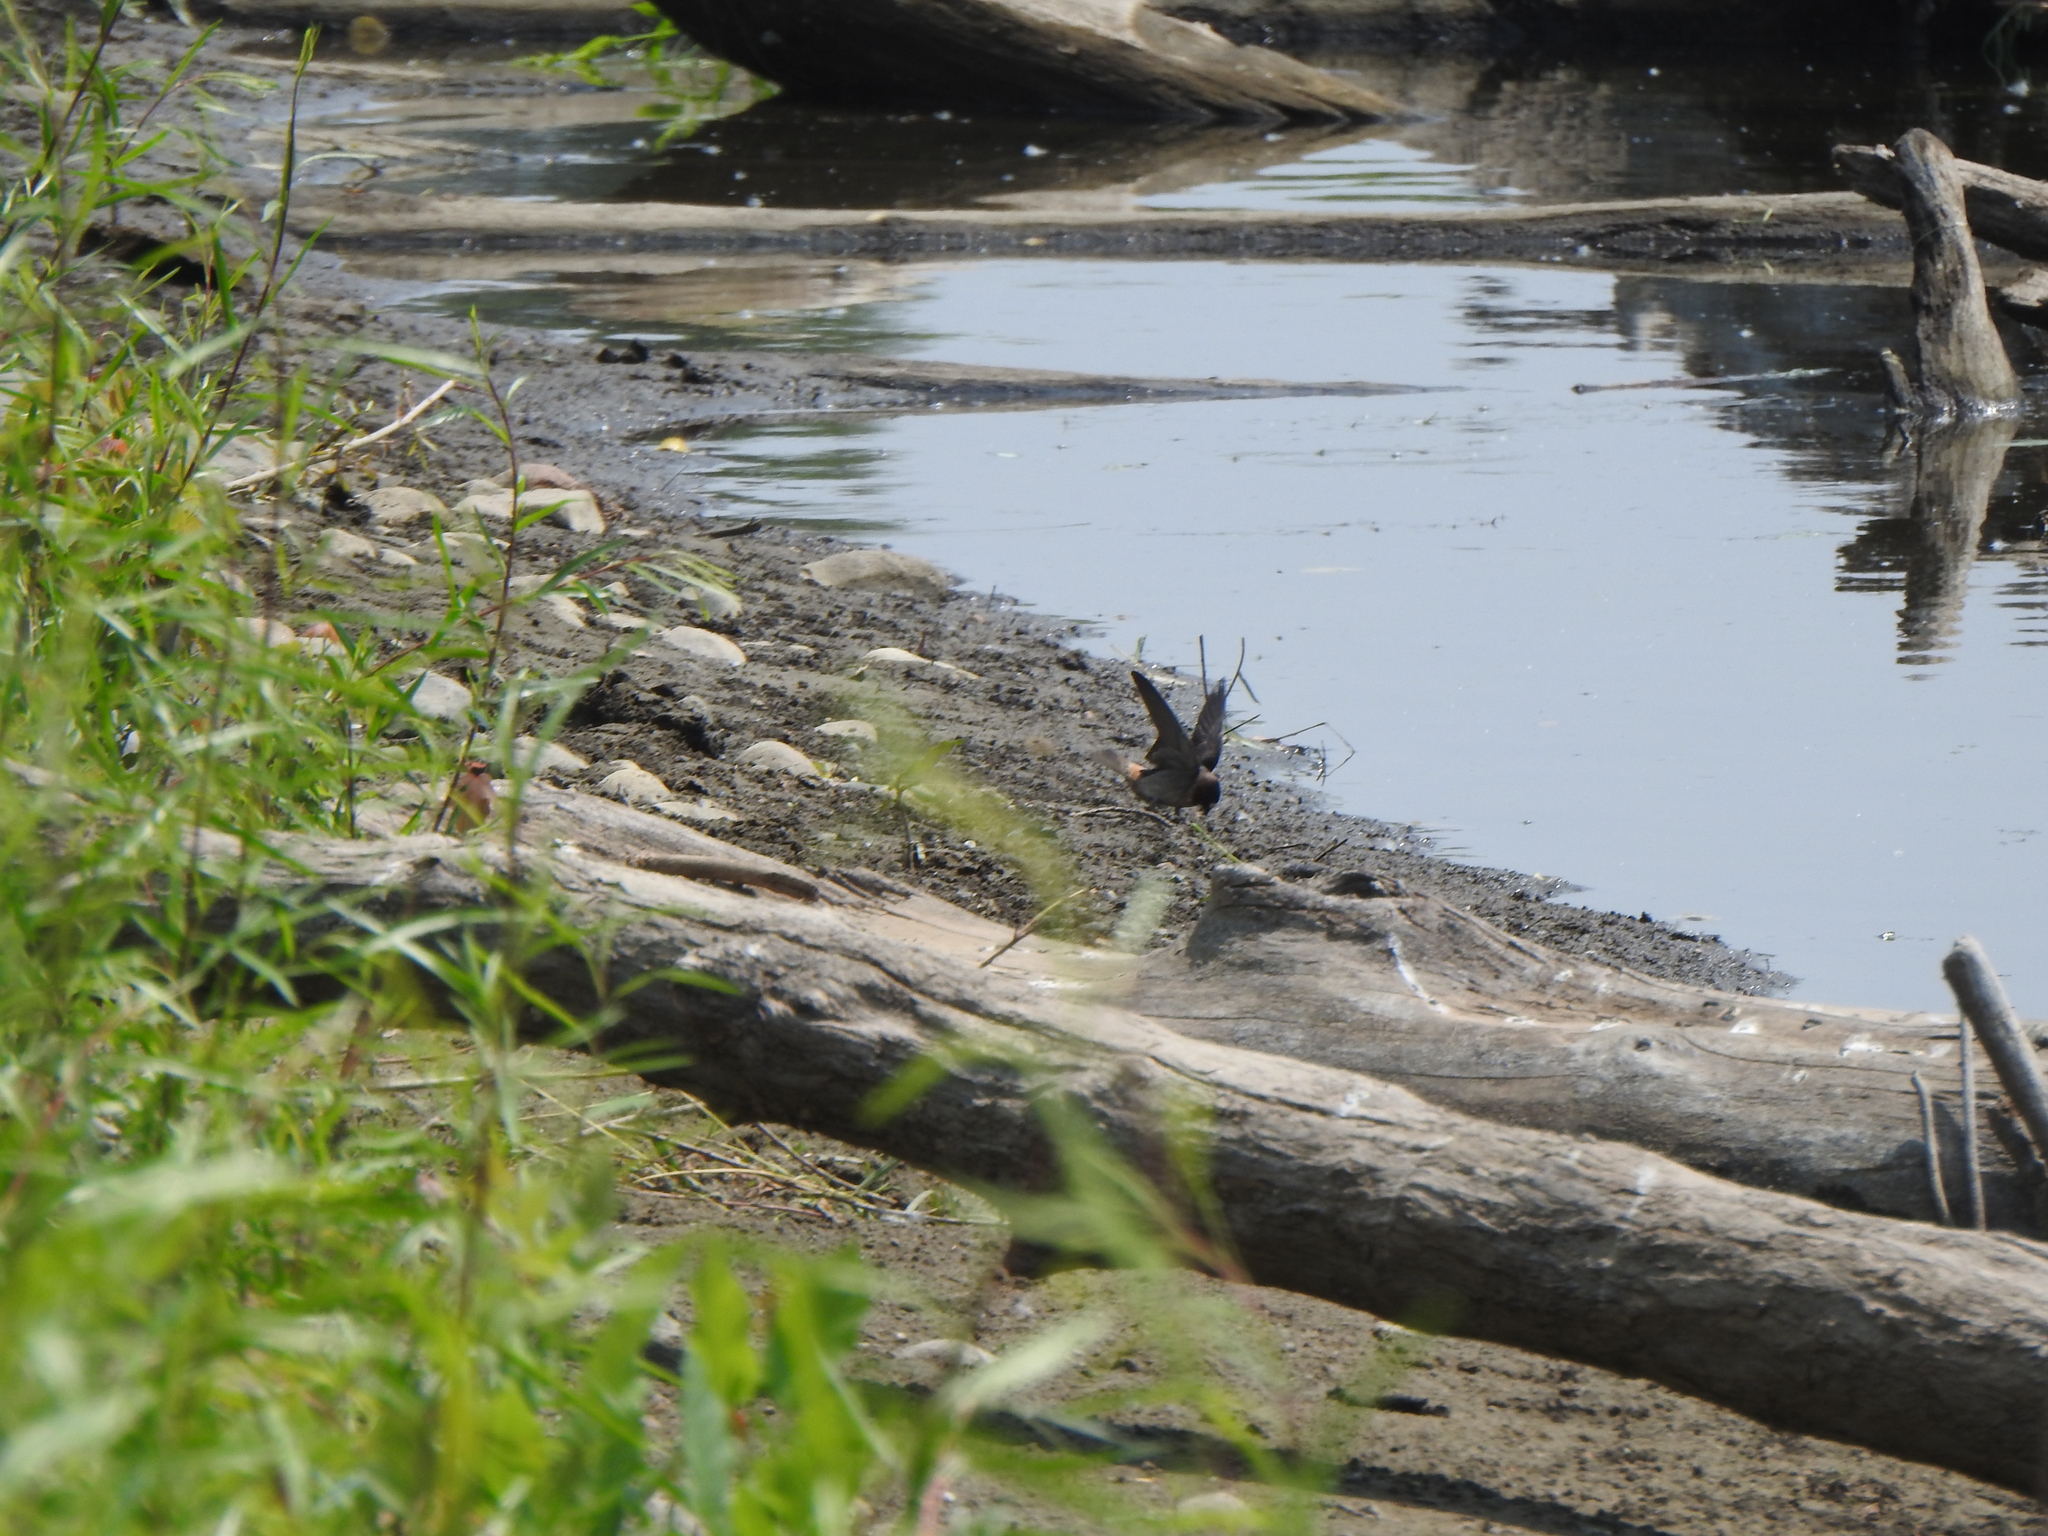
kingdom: Animalia
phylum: Chordata
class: Aves
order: Passeriformes
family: Hirundinidae
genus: Petrochelidon
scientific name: Petrochelidon pyrrhonota
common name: American cliff swallow
